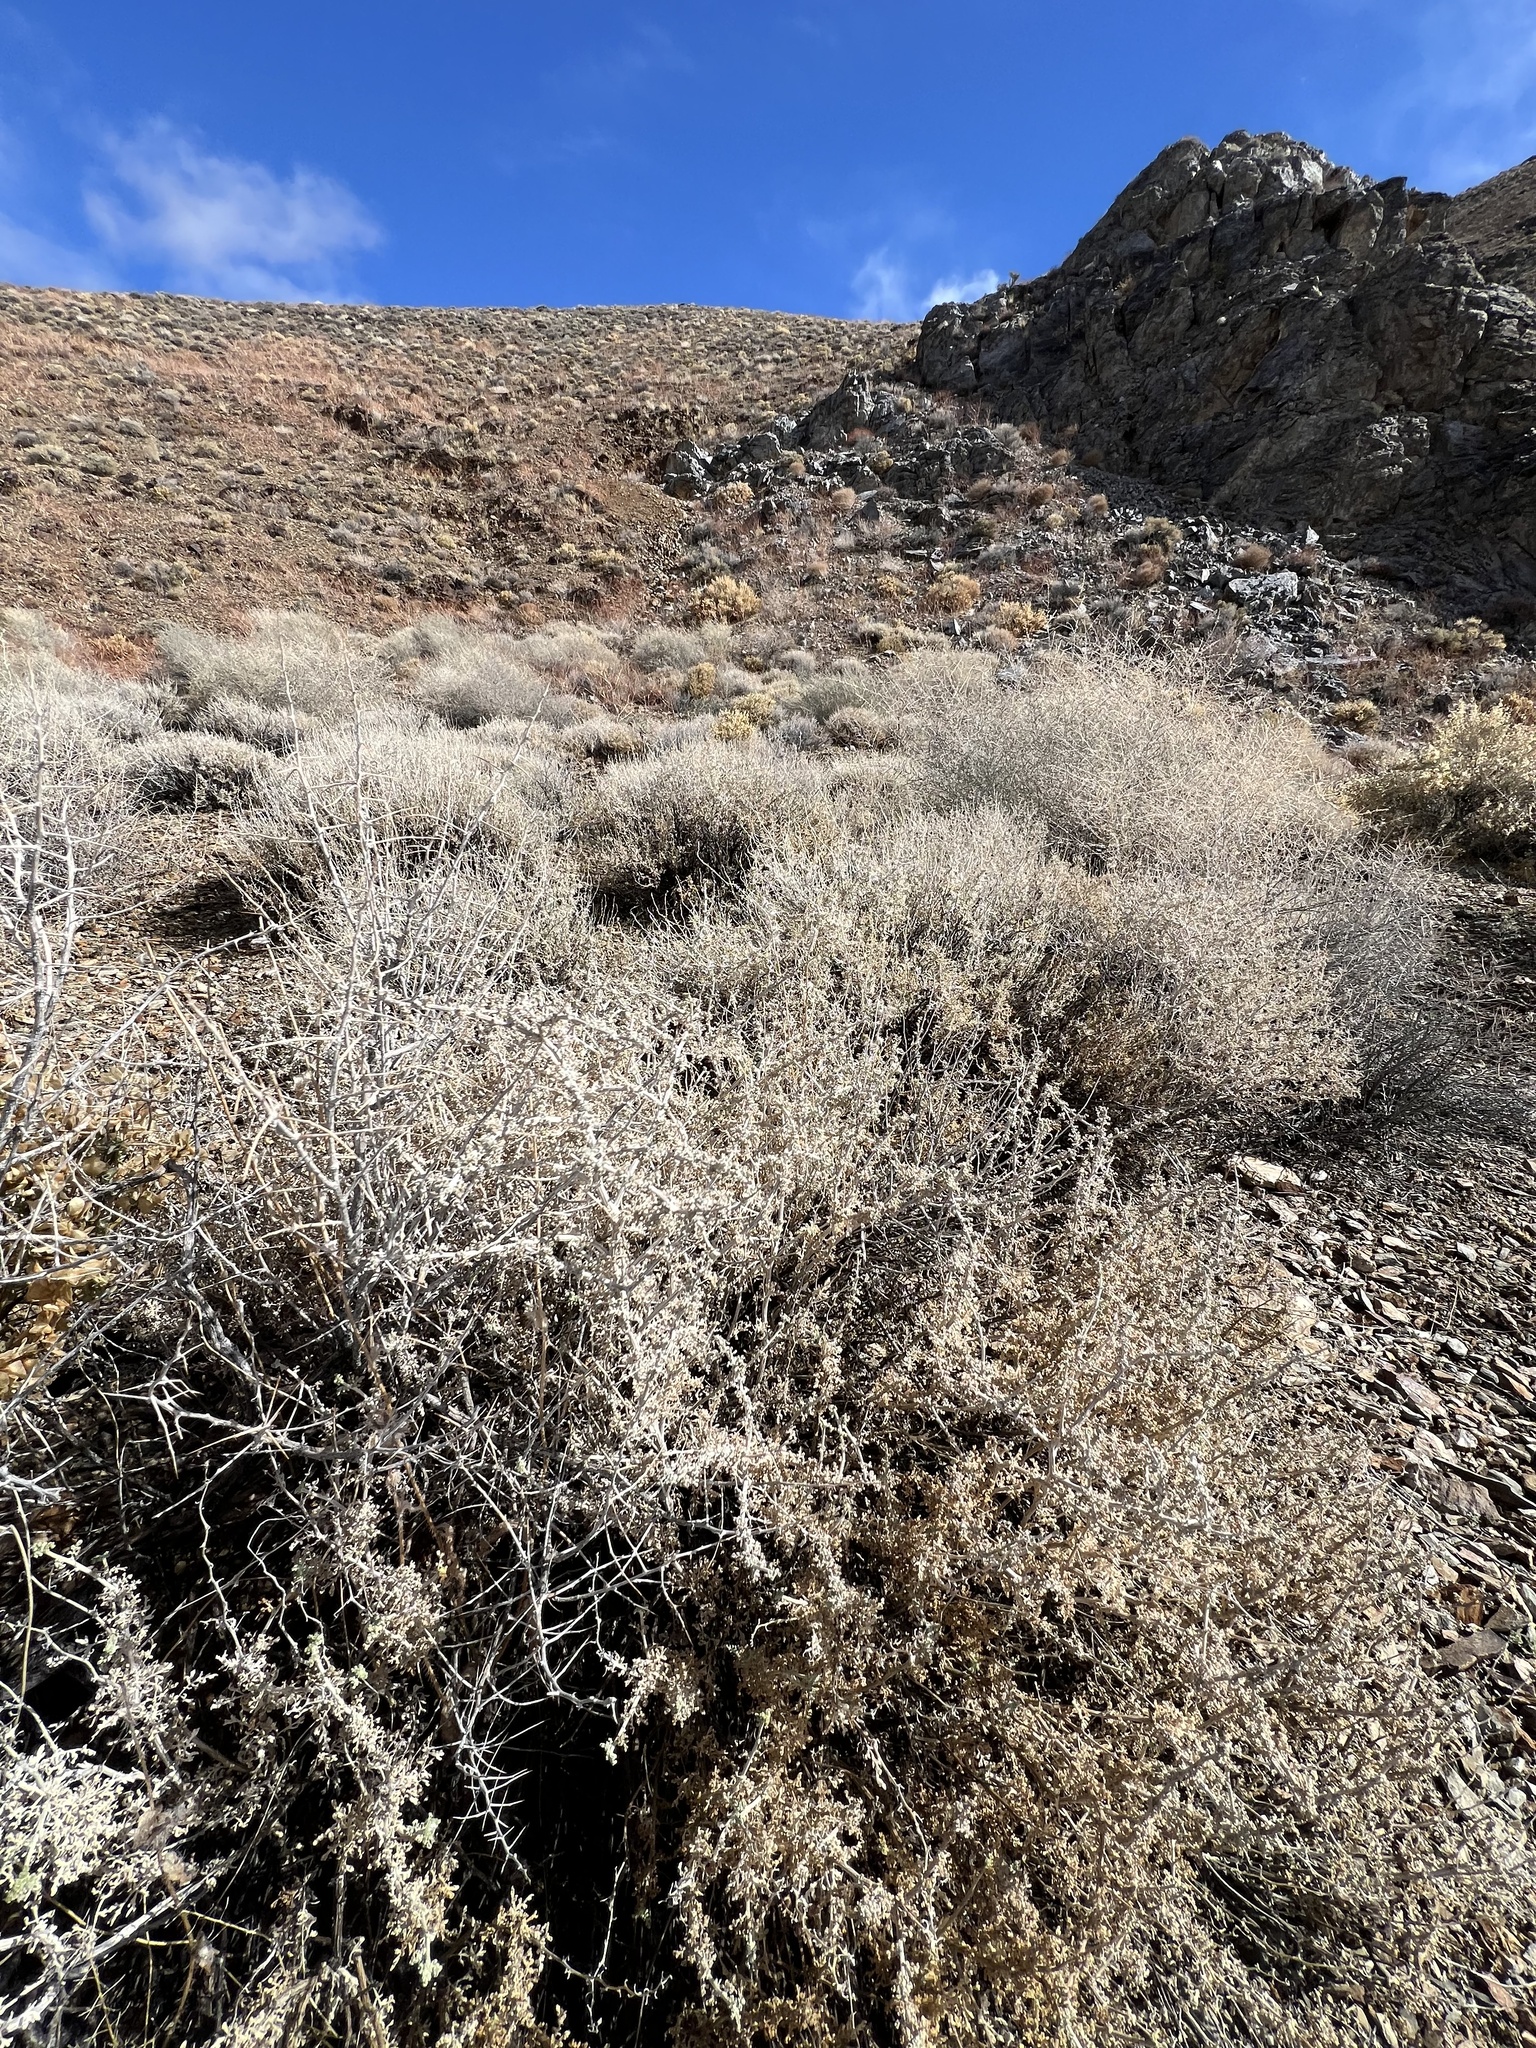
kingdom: Plantae
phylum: Tracheophyta
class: Magnoliopsida
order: Asterales
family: Asteraceae
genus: Ambrosia
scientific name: Ambrosia dumosa
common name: Bur-sage
